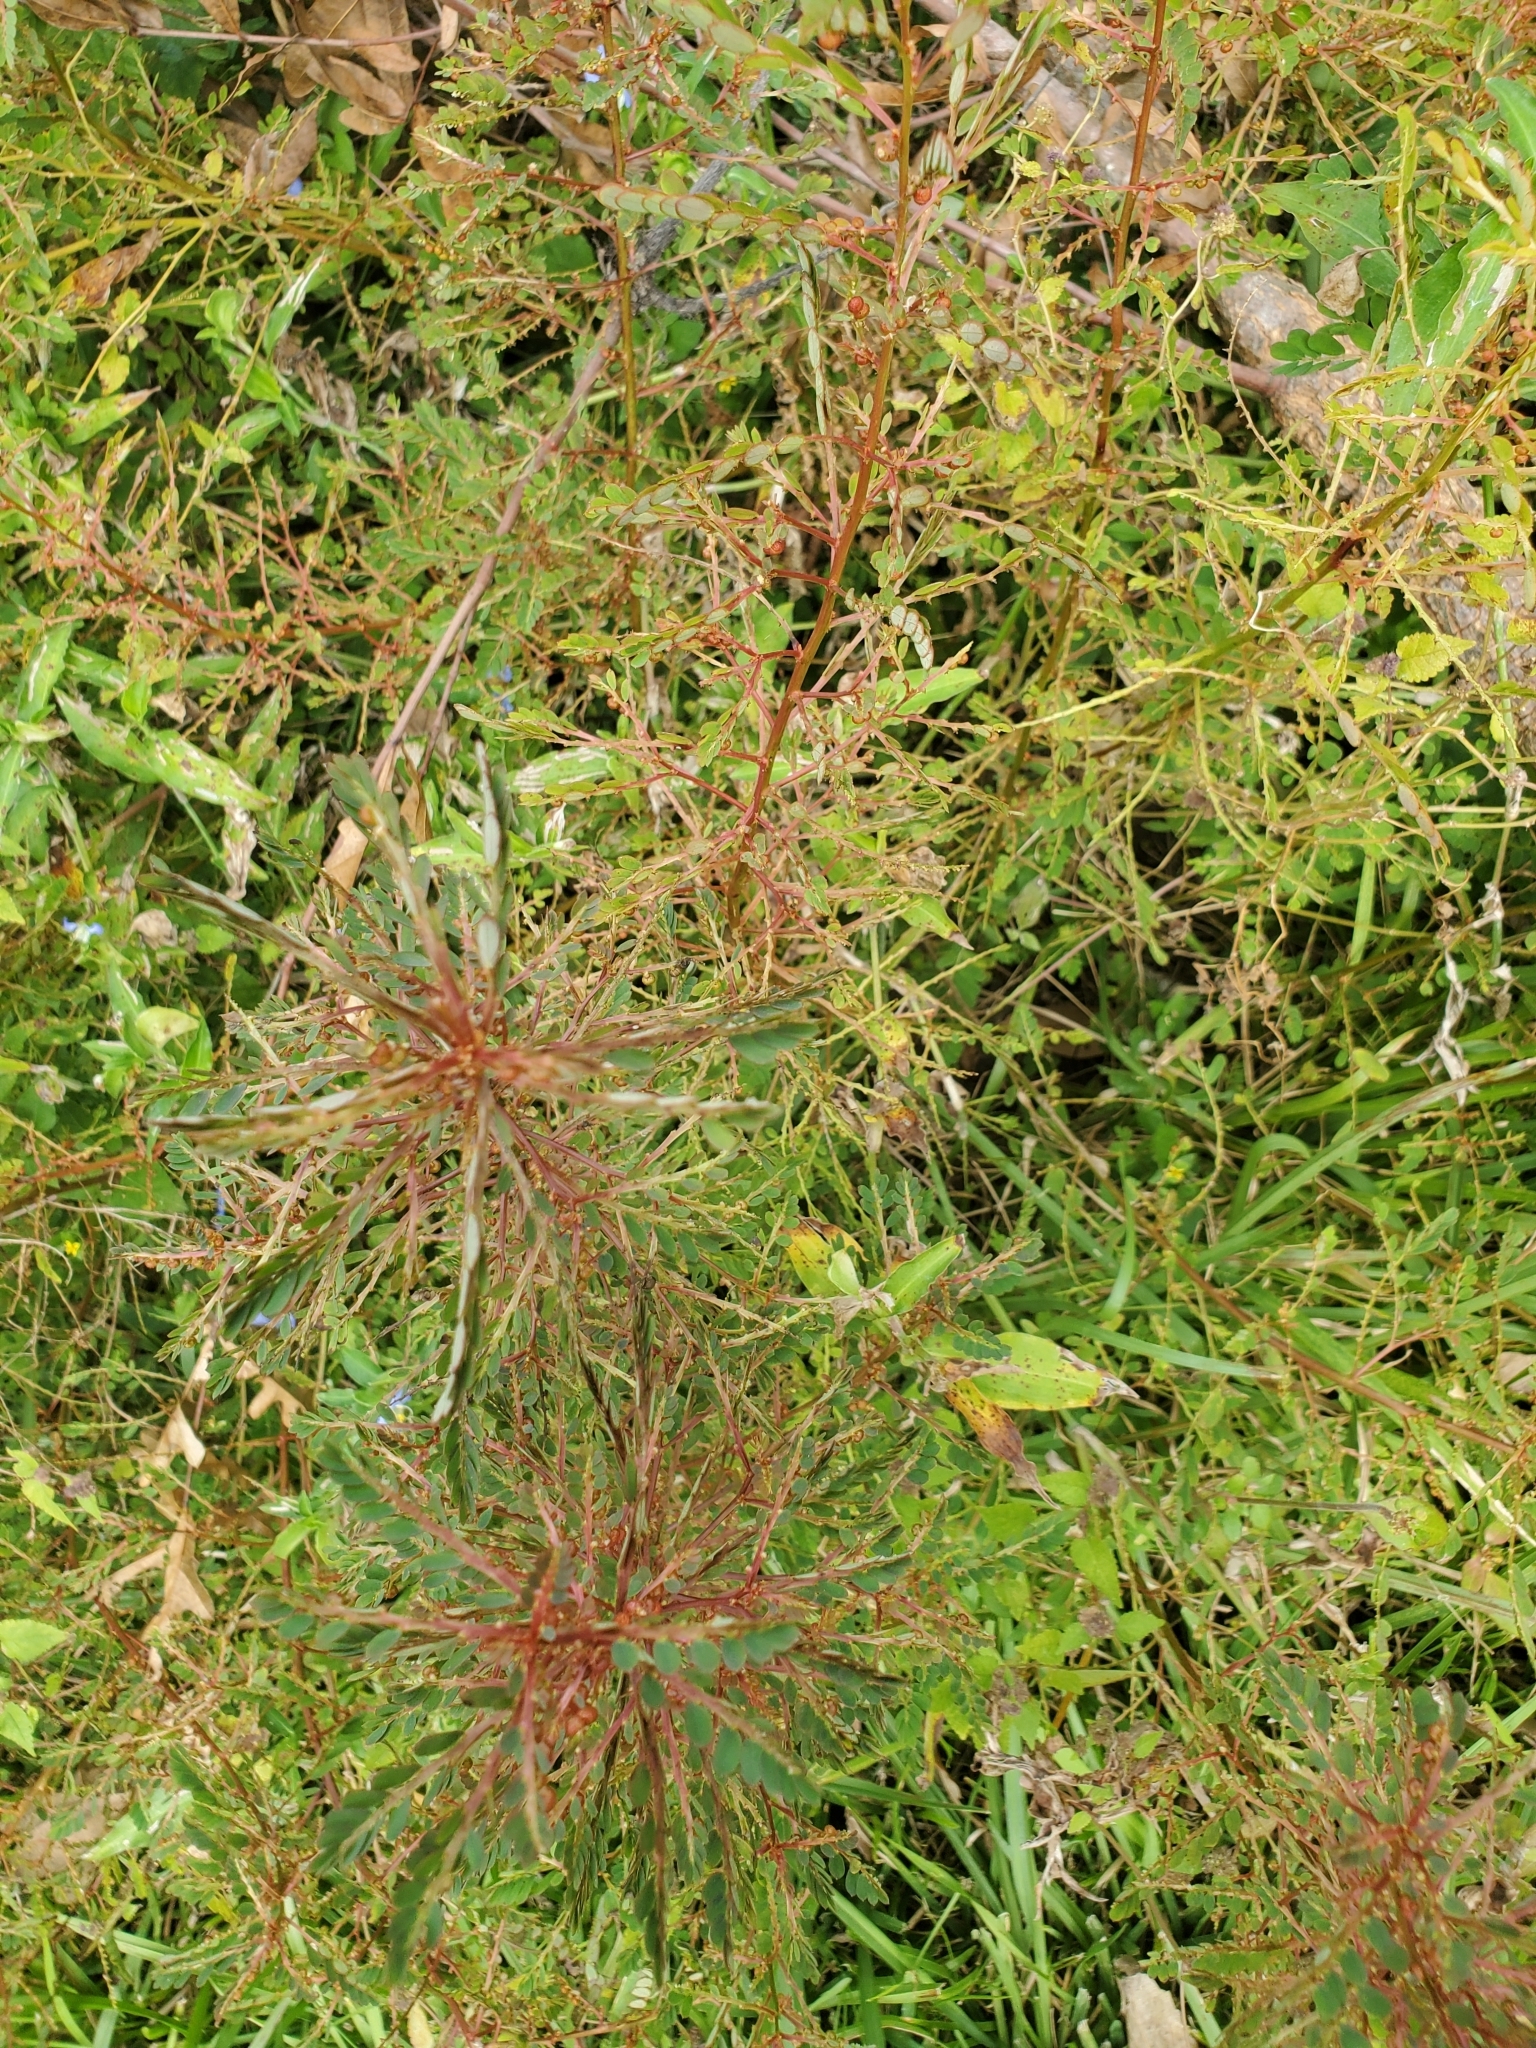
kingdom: Plantae
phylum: Tracheophyta
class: Magnoliopsida
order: Malpighiales
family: Phyllanthaceae
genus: Phyllanthus
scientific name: Phyllanthus urinaria
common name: Chamber bitter
